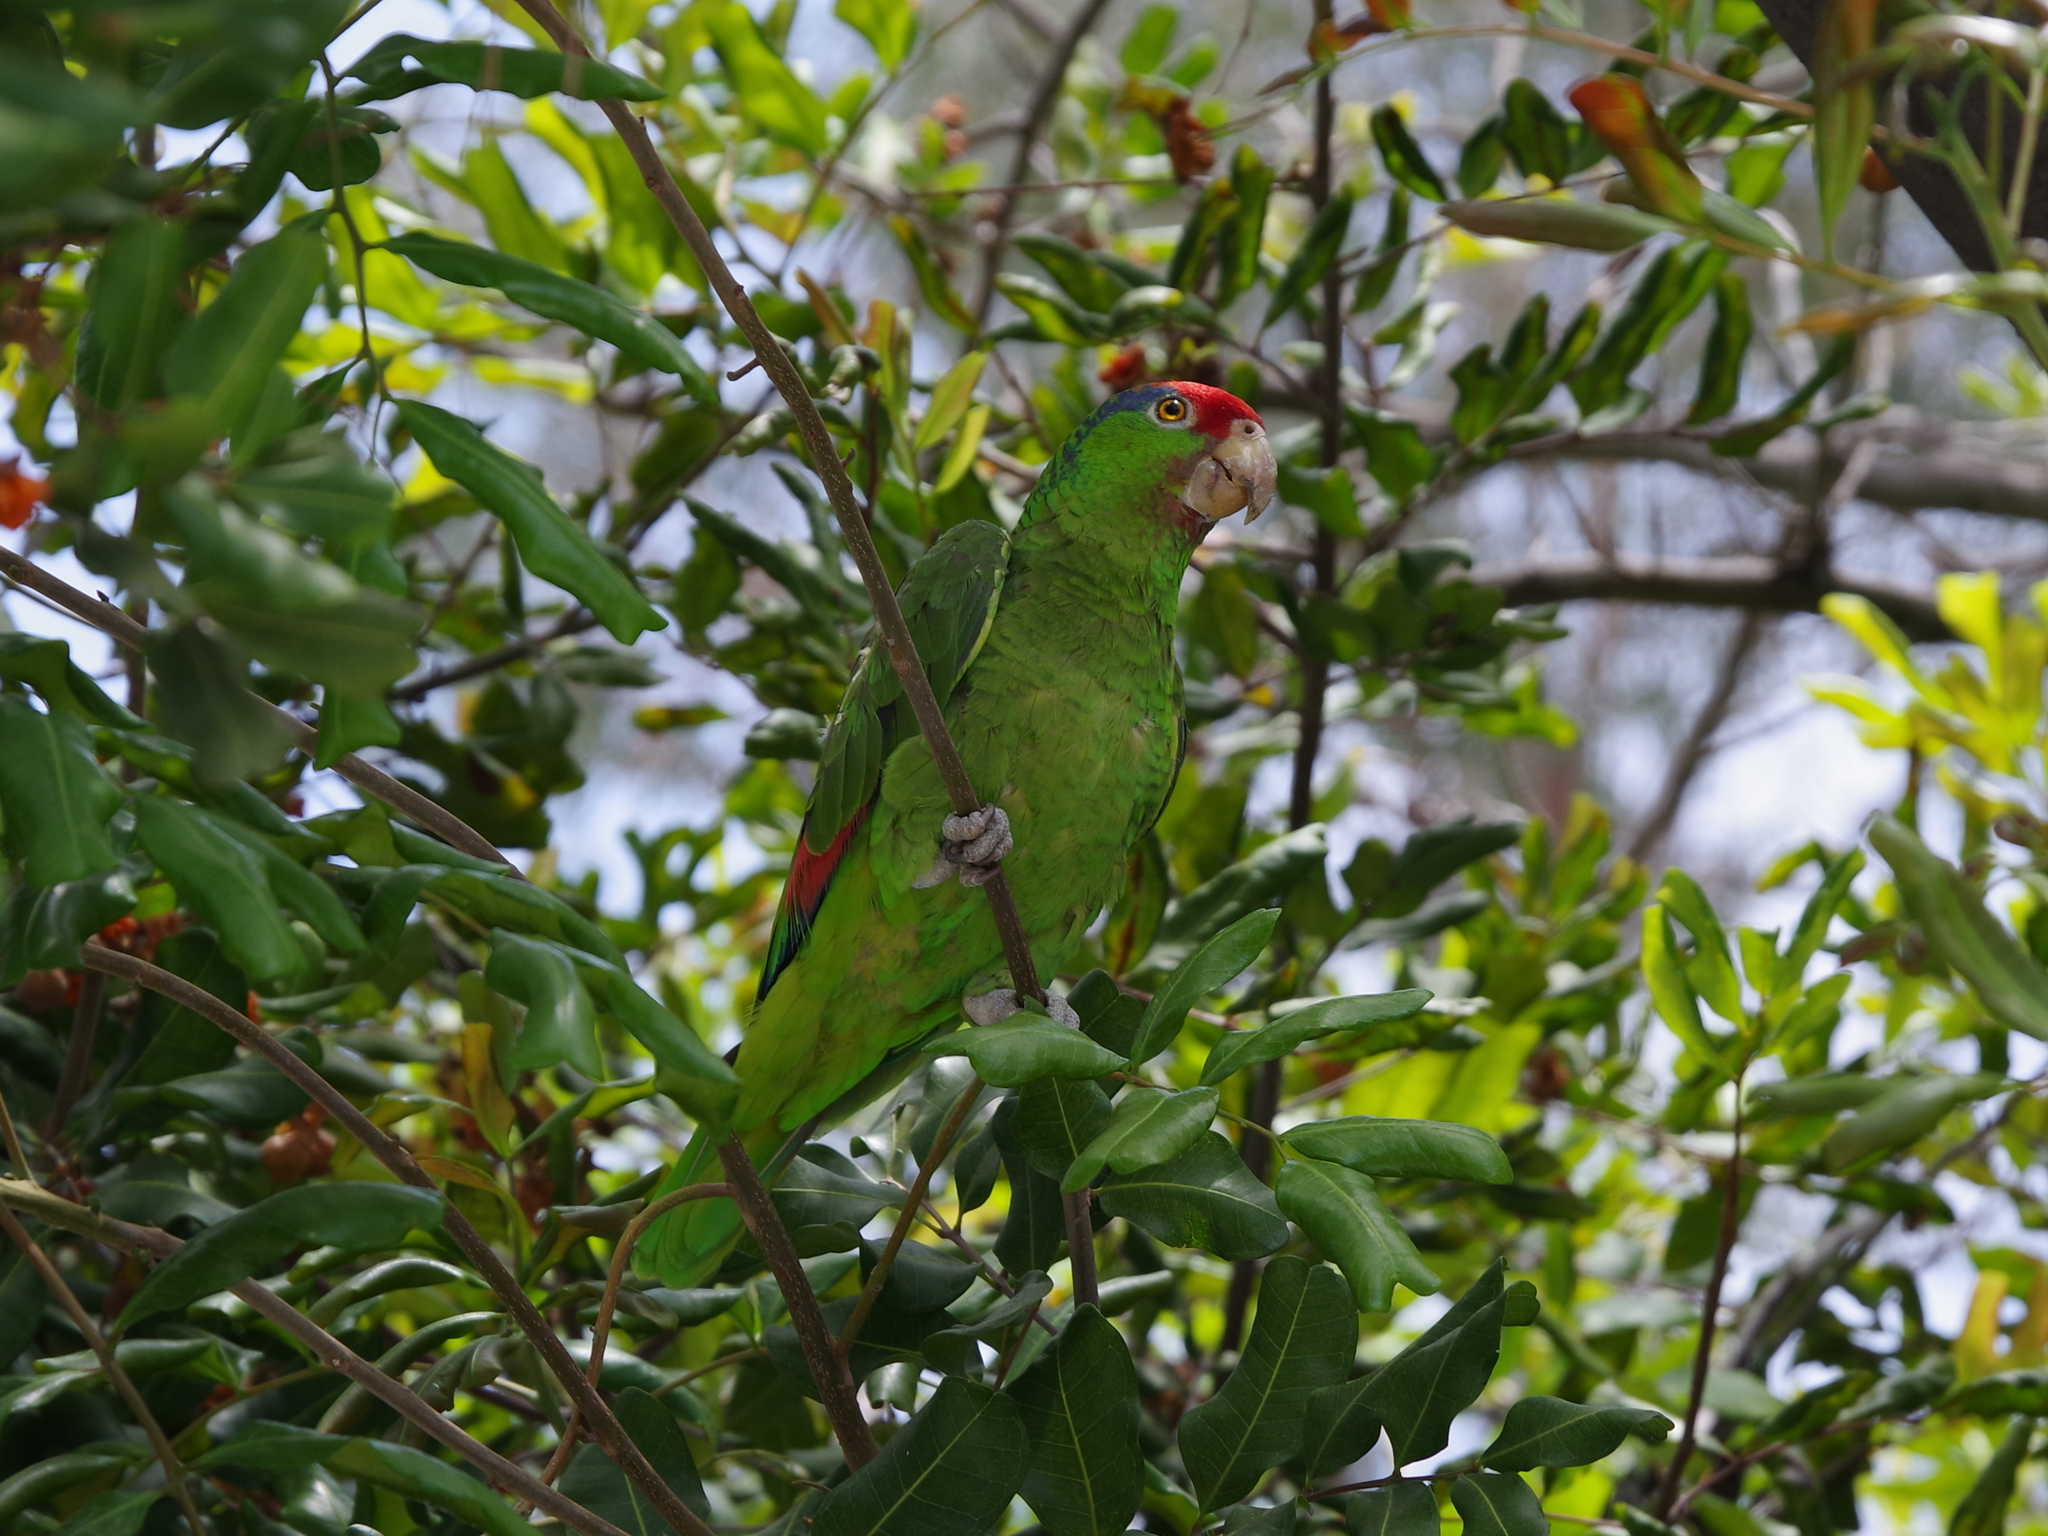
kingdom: Animalia
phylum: Chordata
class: Aves
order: Psittaciformes
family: Psittacidae
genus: Amazona
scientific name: Amazona viridigenalis
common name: Red-crowned amazon
